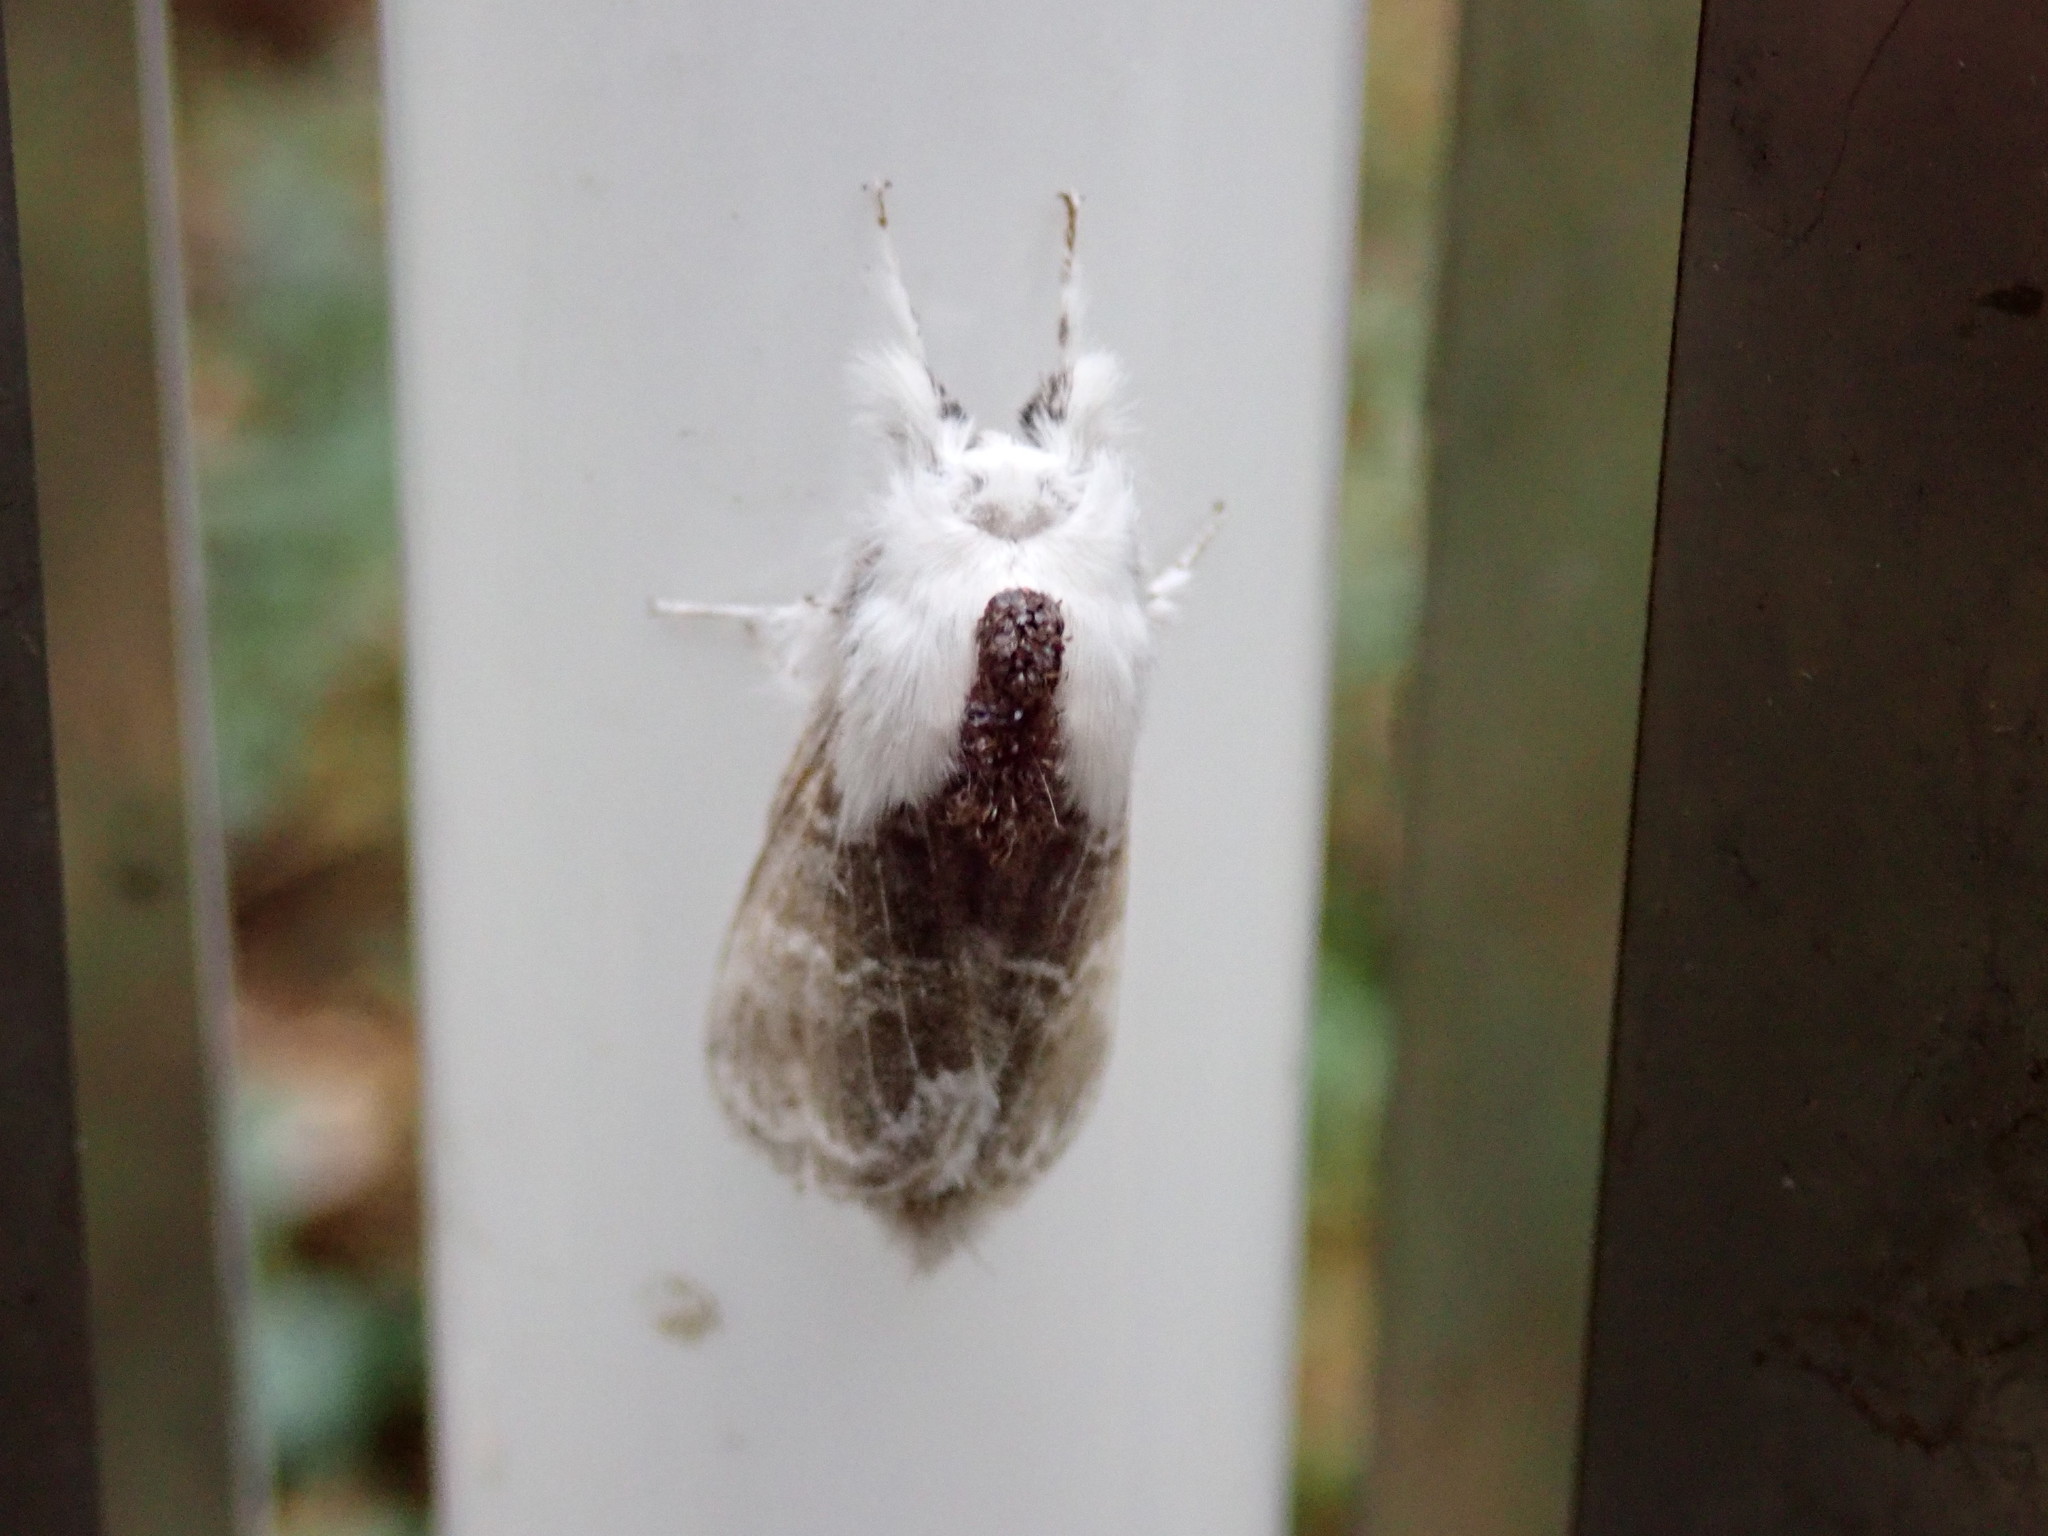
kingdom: Animalia
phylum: Arthropoda
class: Insecta
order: Lepidoptera
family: Lasiocampidae
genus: Tolype
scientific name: Tolype velleda
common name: Large tolype moth
